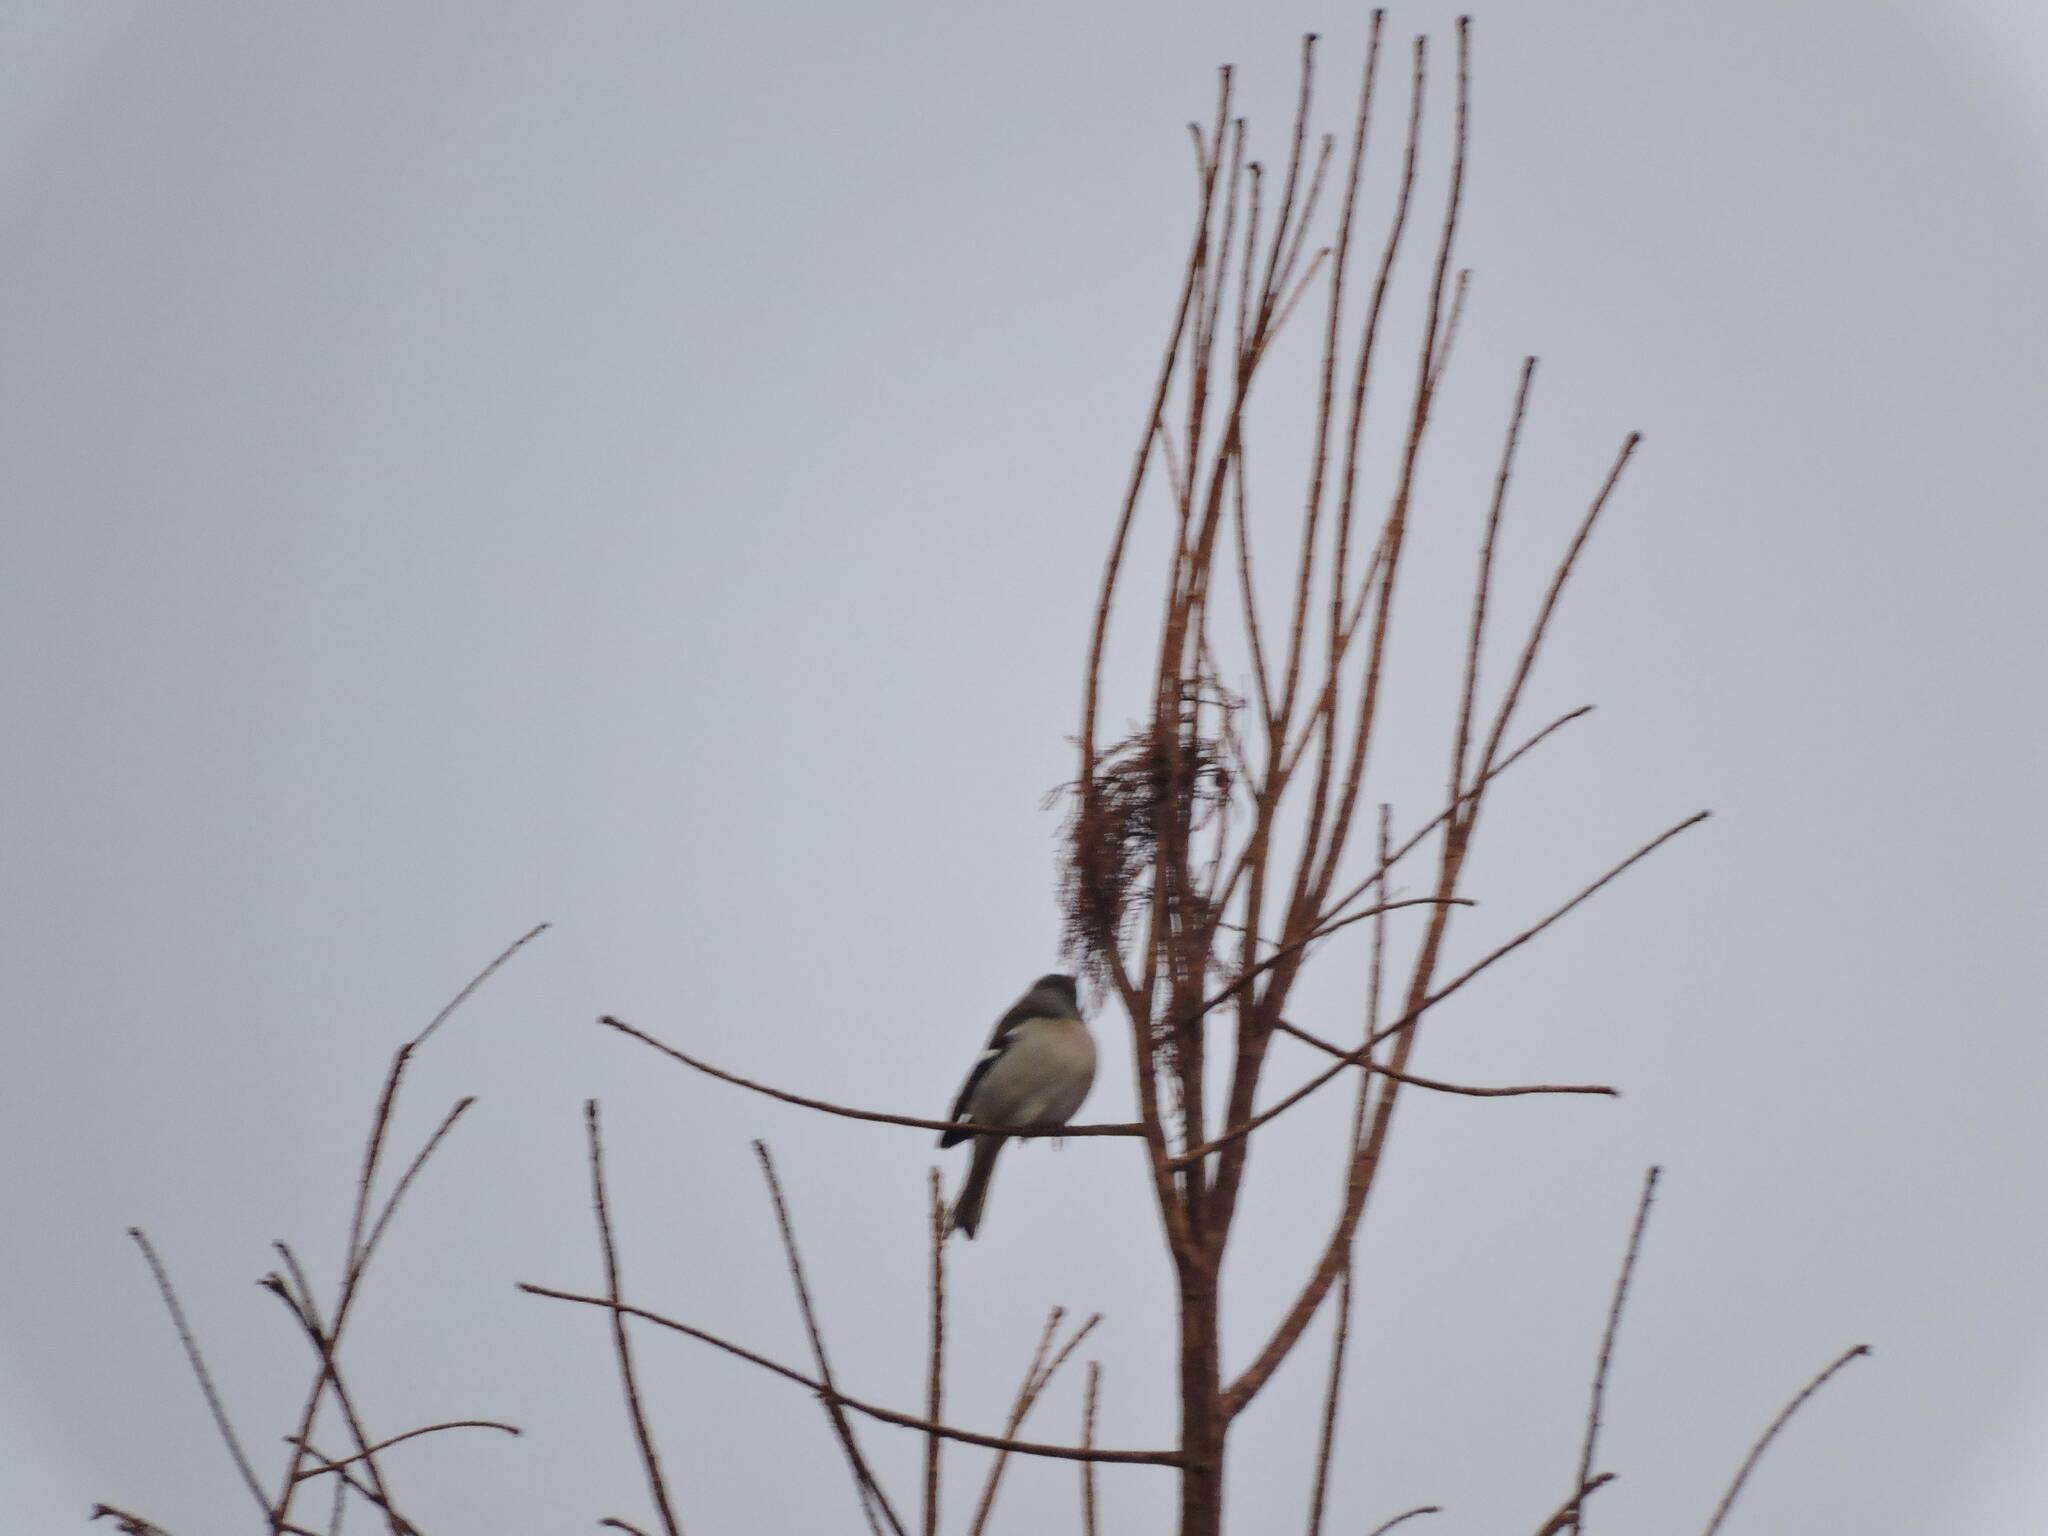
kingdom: Animalia
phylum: Chordata
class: Aves
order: Passeriformes
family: Fringillidae
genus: Fringilla
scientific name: Fringilla spodiogenys
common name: African chaffinch
